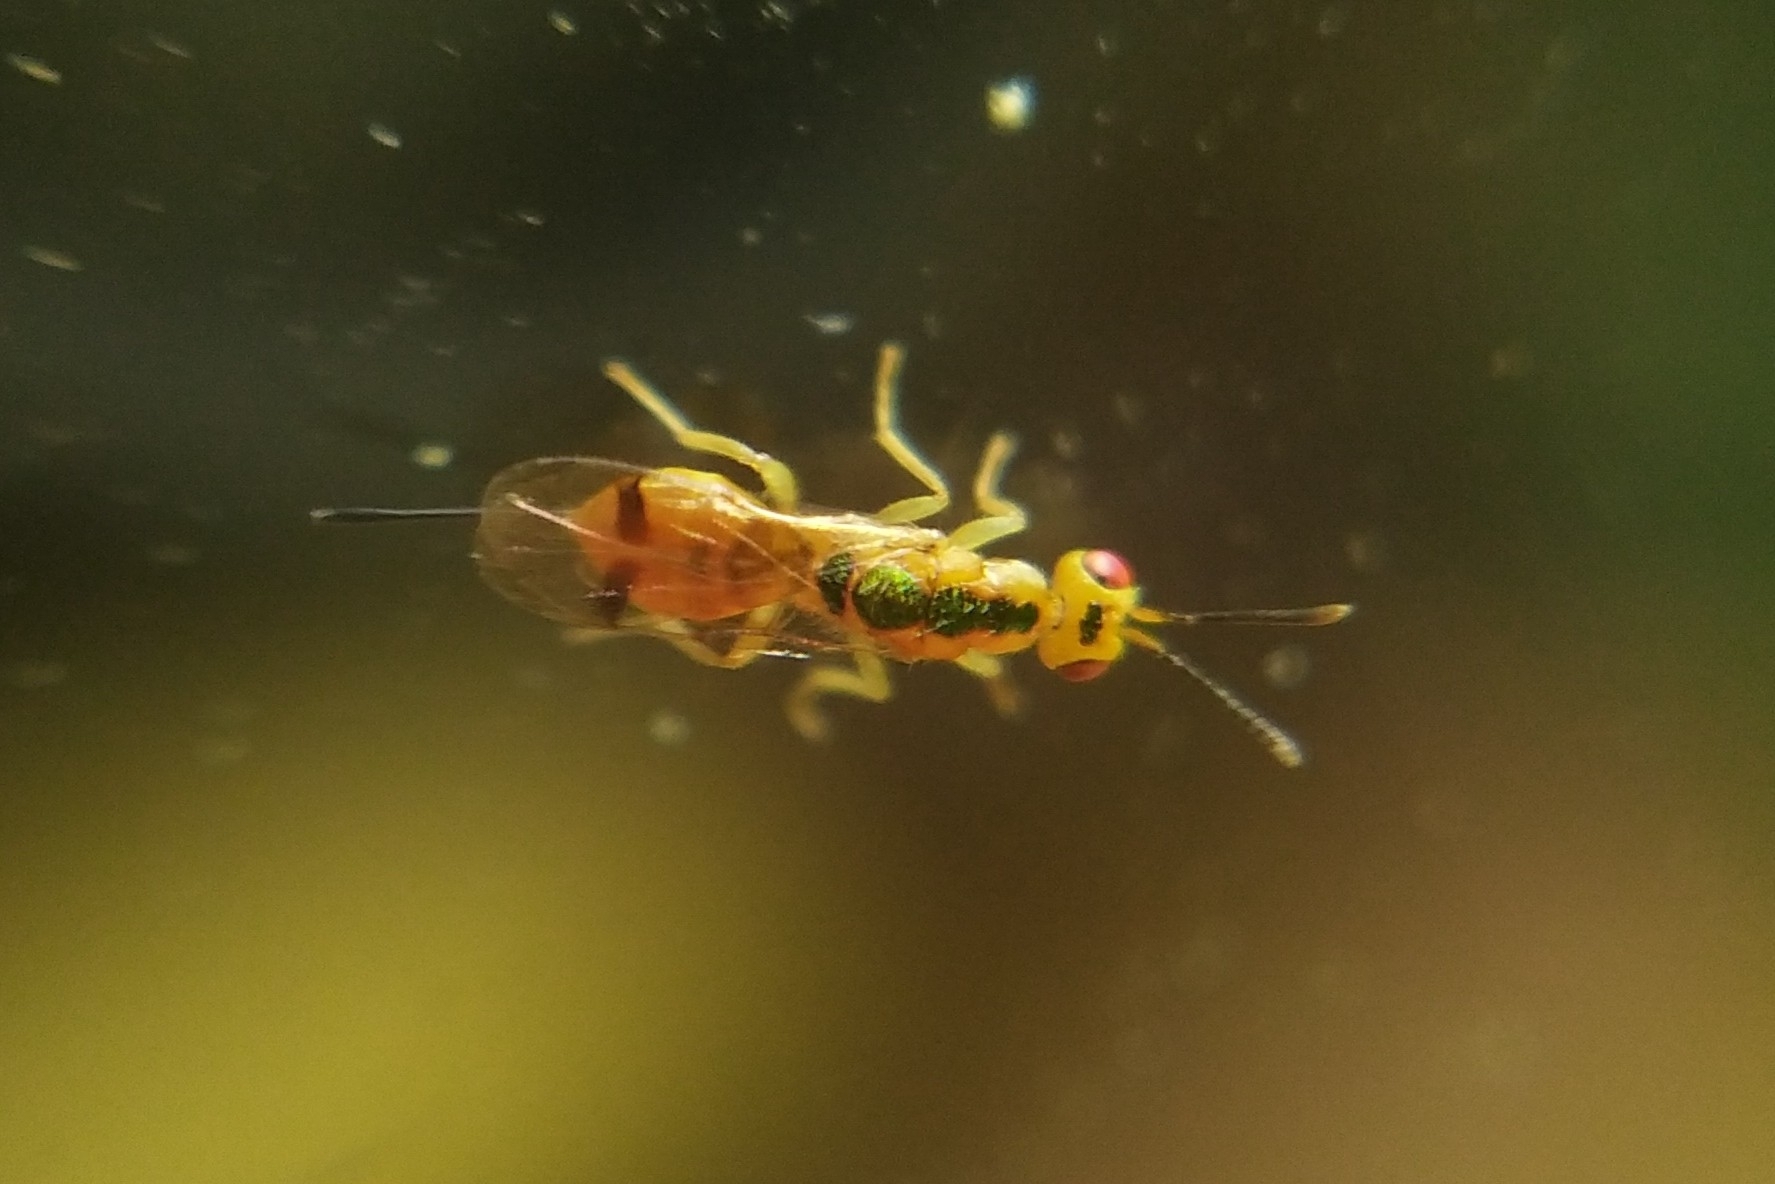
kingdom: Animalia
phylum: Arthropoda
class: Insecta
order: Hymenoptera
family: Torymidae
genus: Megastigmus
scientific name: Megastigmus dorsalis
